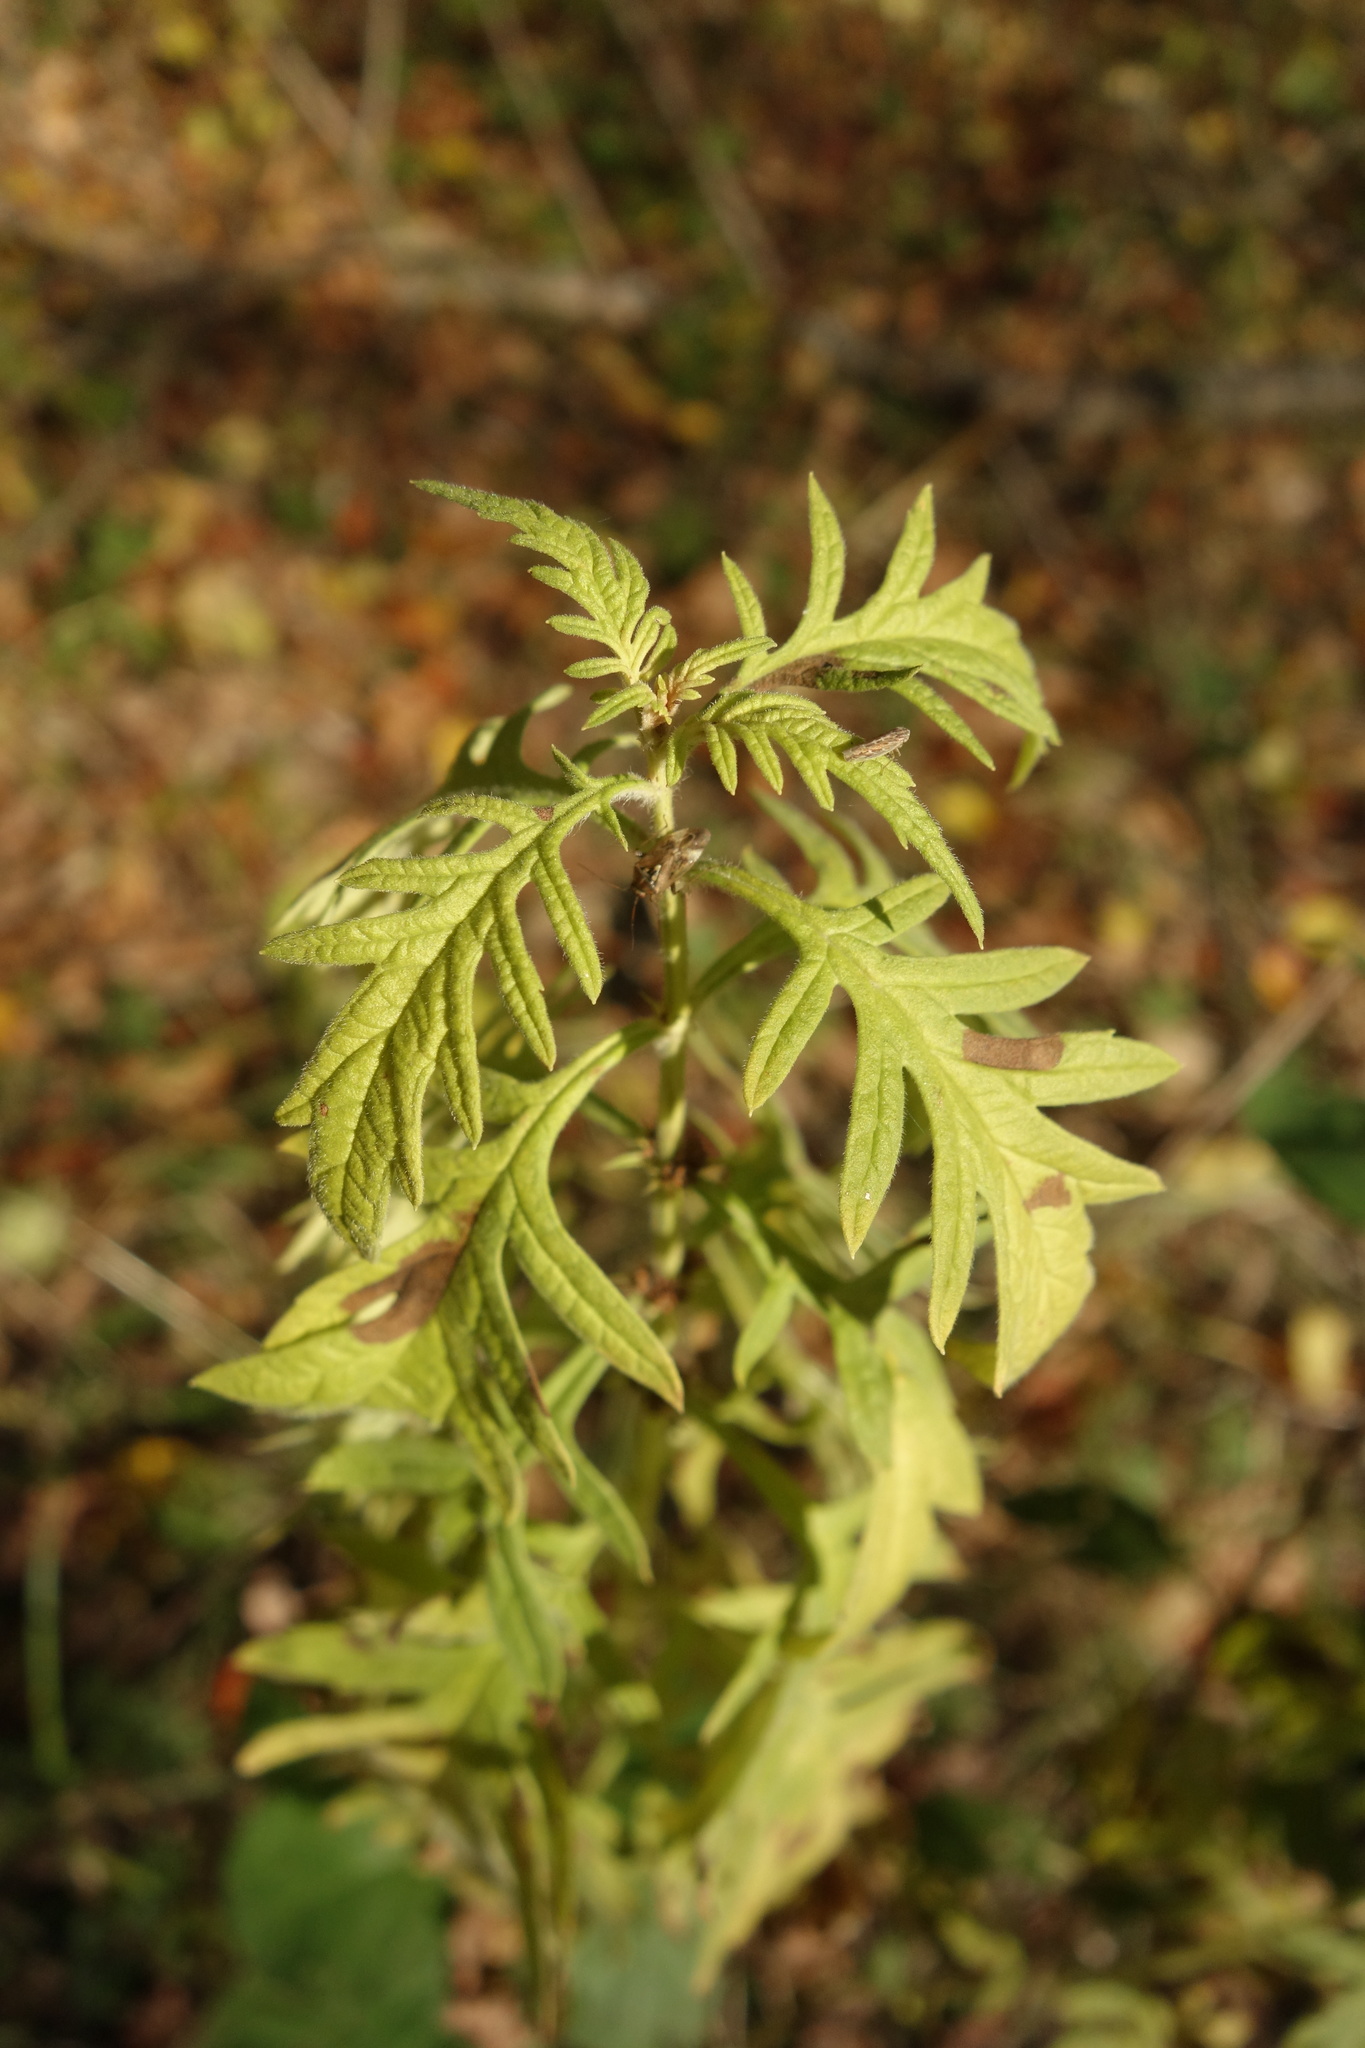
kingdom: Plantae
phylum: Tracheophyta
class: Magnoliopsida
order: Lamiales
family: Lamiaceae
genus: Lycopus
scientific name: Lycopus exaltatus
